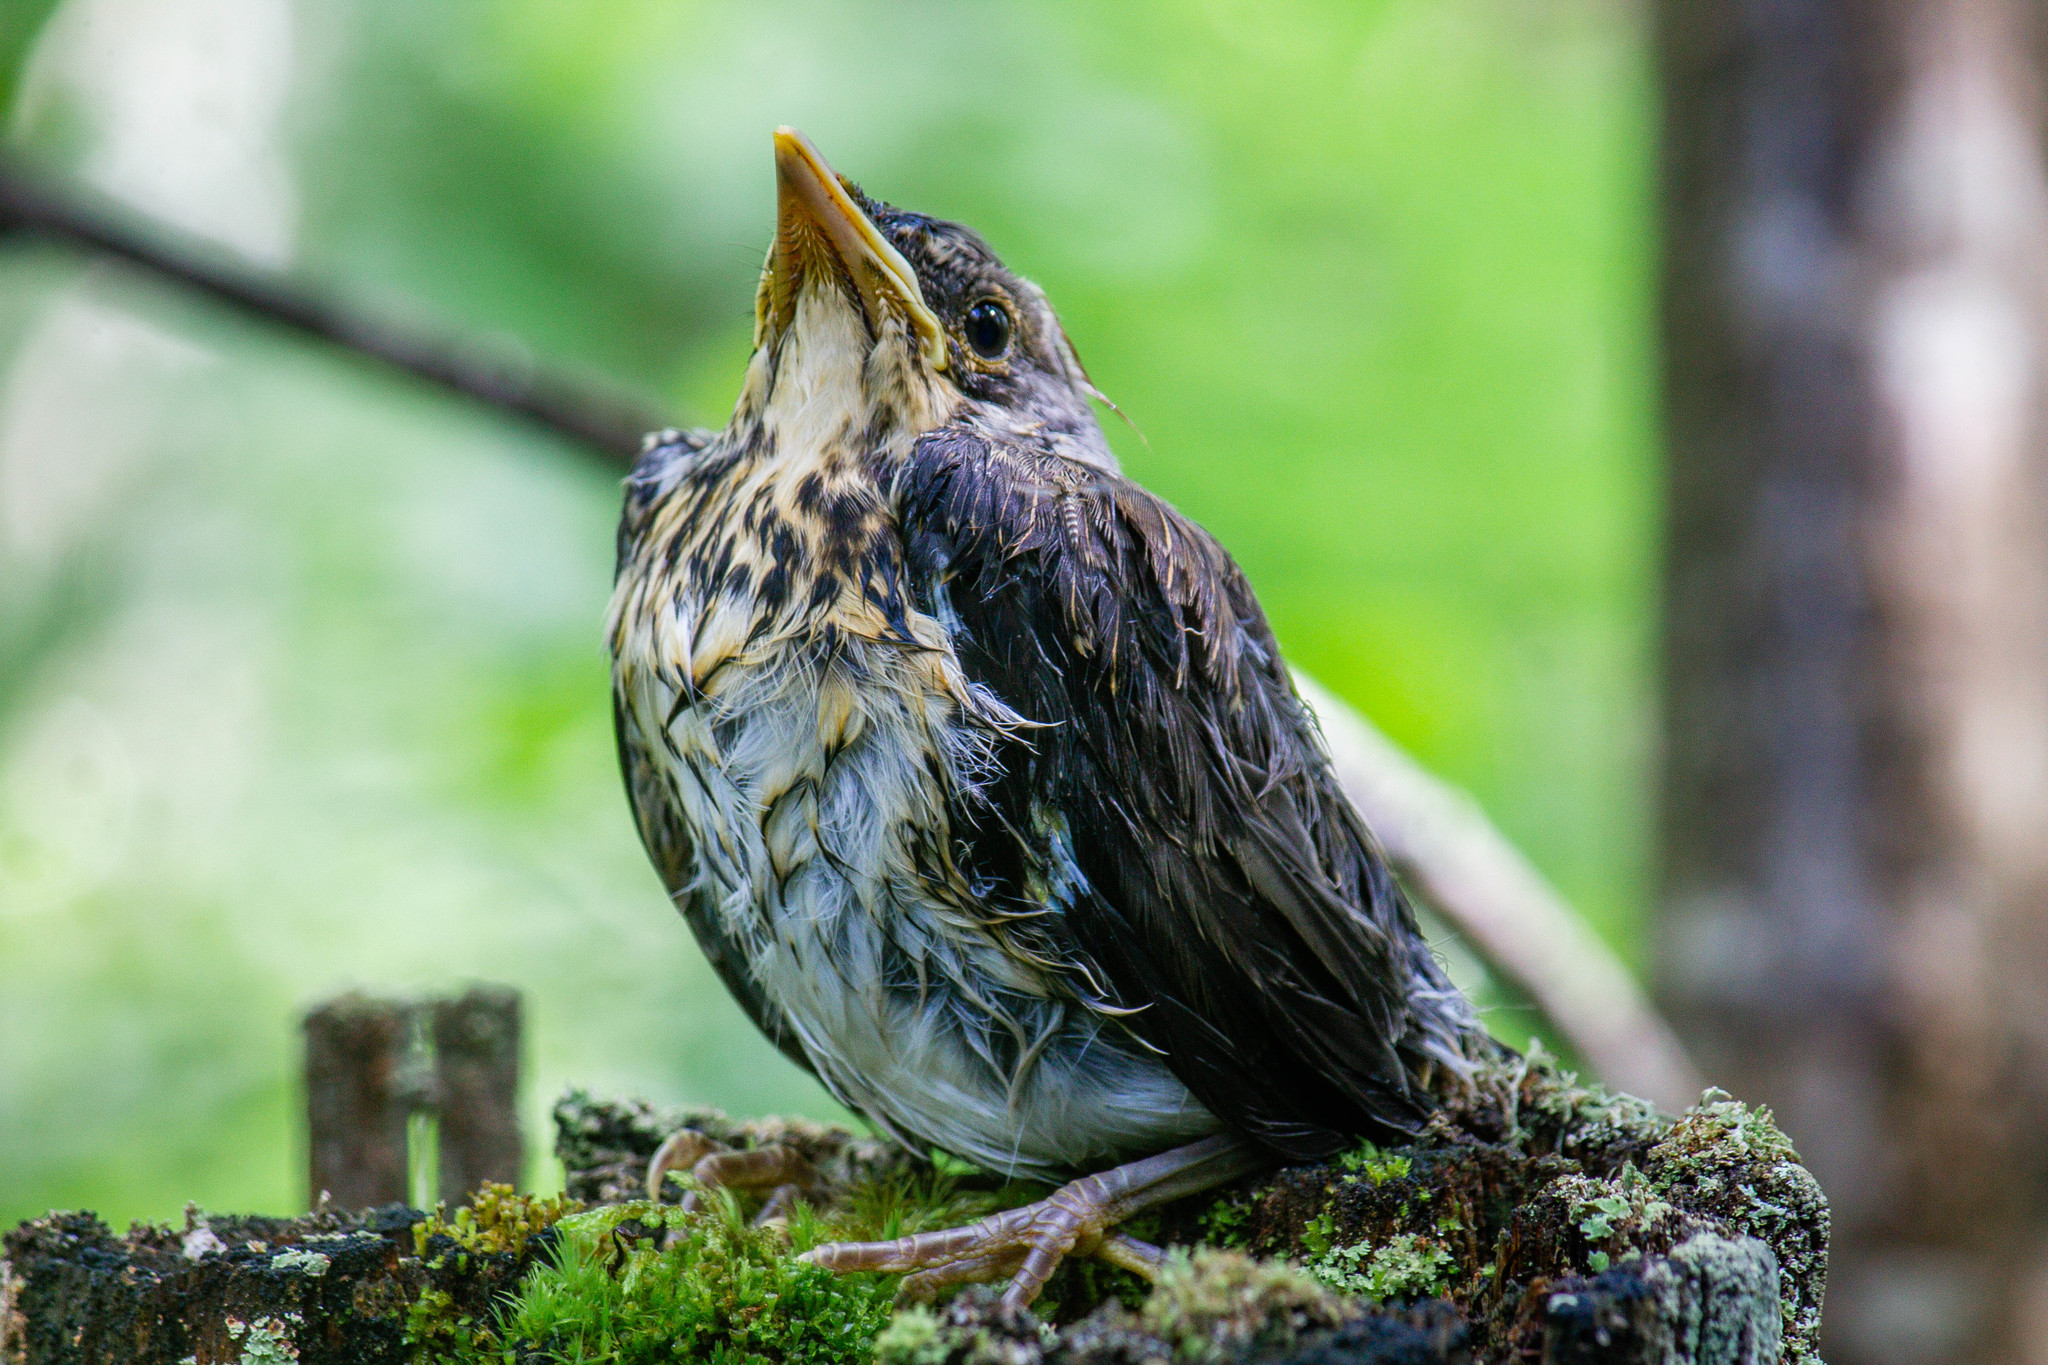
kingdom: Animalia
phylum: Chordata
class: Aves
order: Passeriformes
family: Turdidae
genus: Turdus
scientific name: Turdus pilaris
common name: Fieldfare
